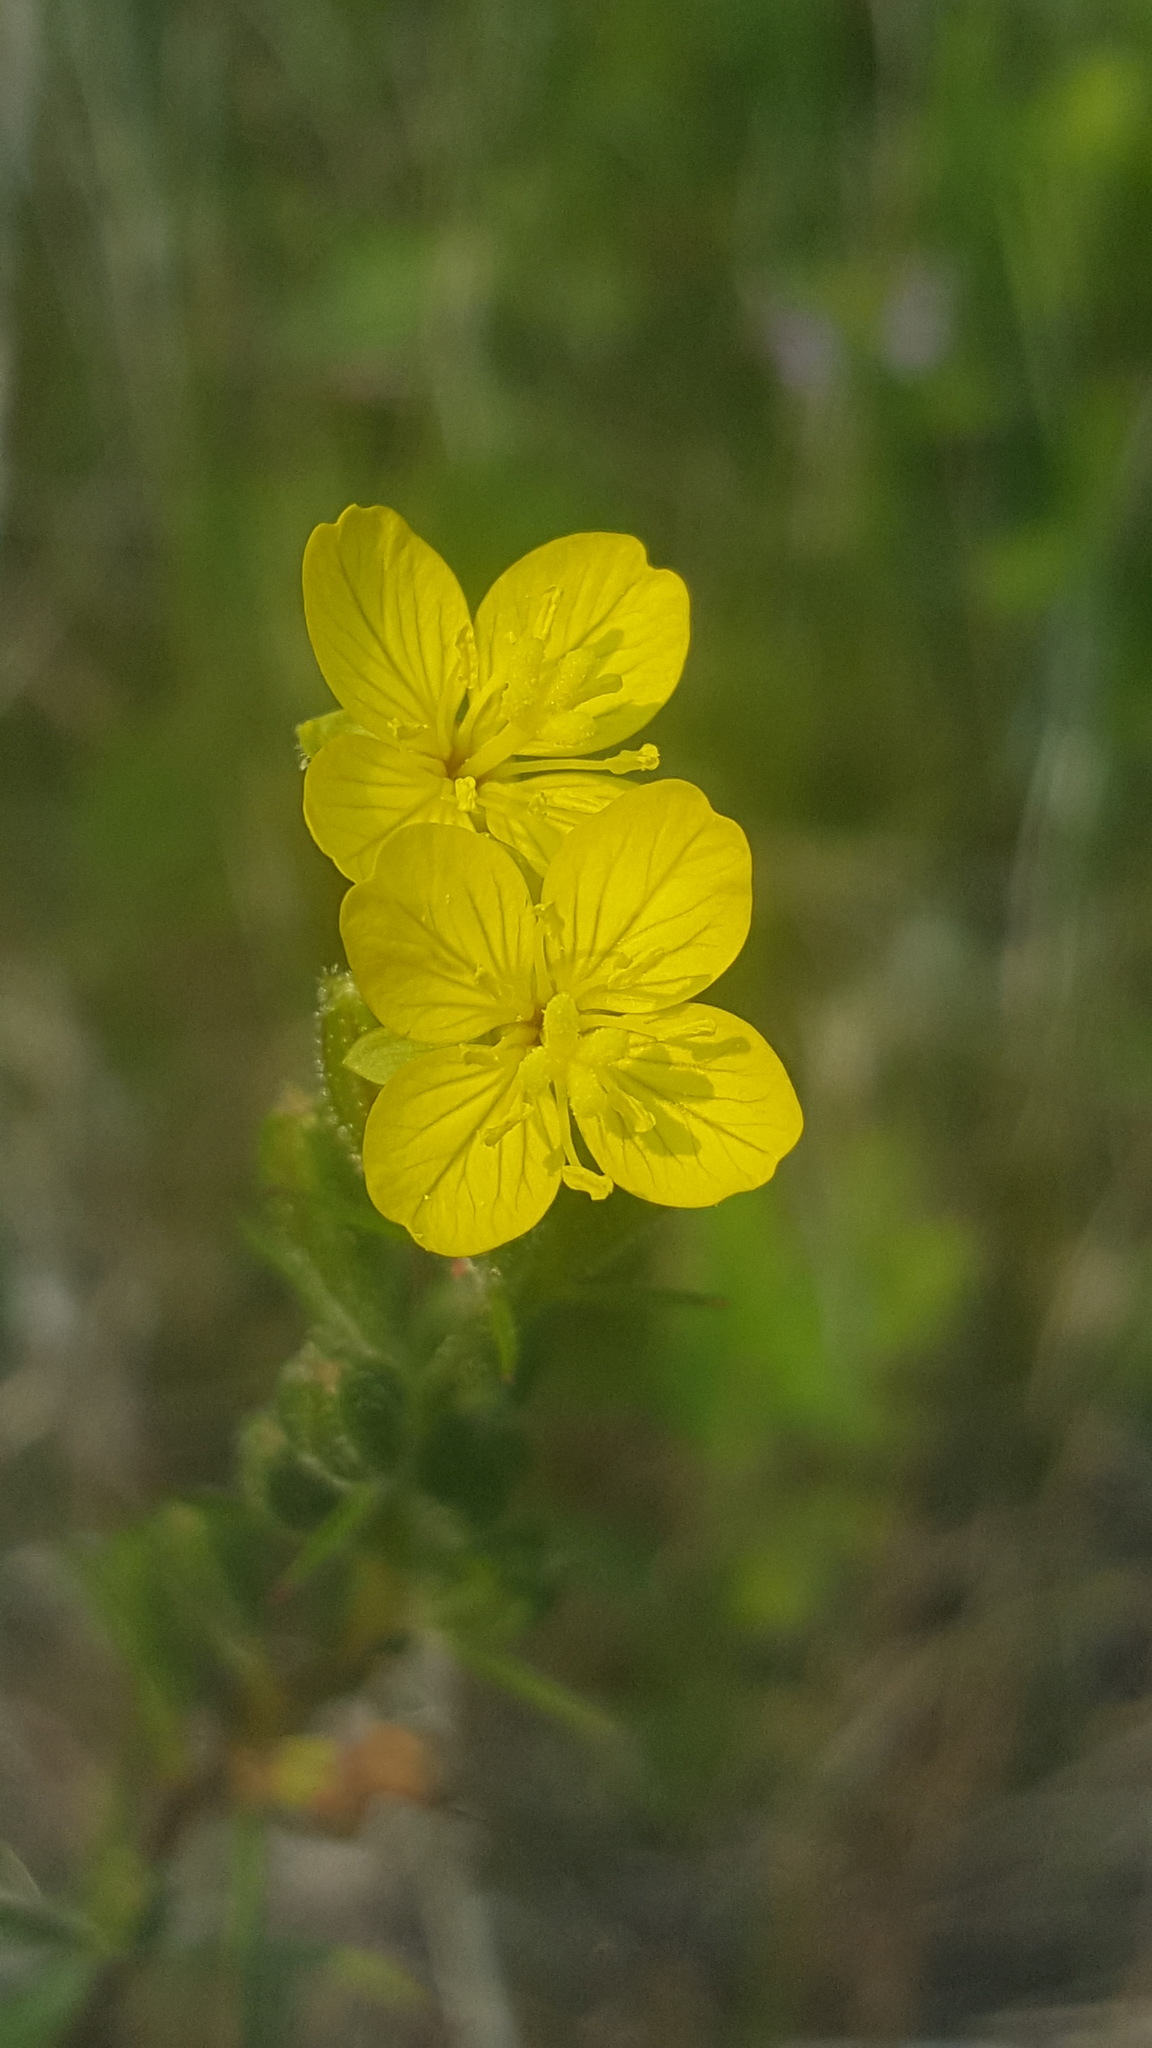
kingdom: Plantae
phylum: Tracheophyta
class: Magnoliopsida
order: Myrtales
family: Onagraceae
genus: Oenothera
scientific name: Oenothera perennis
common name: Small sundrops
